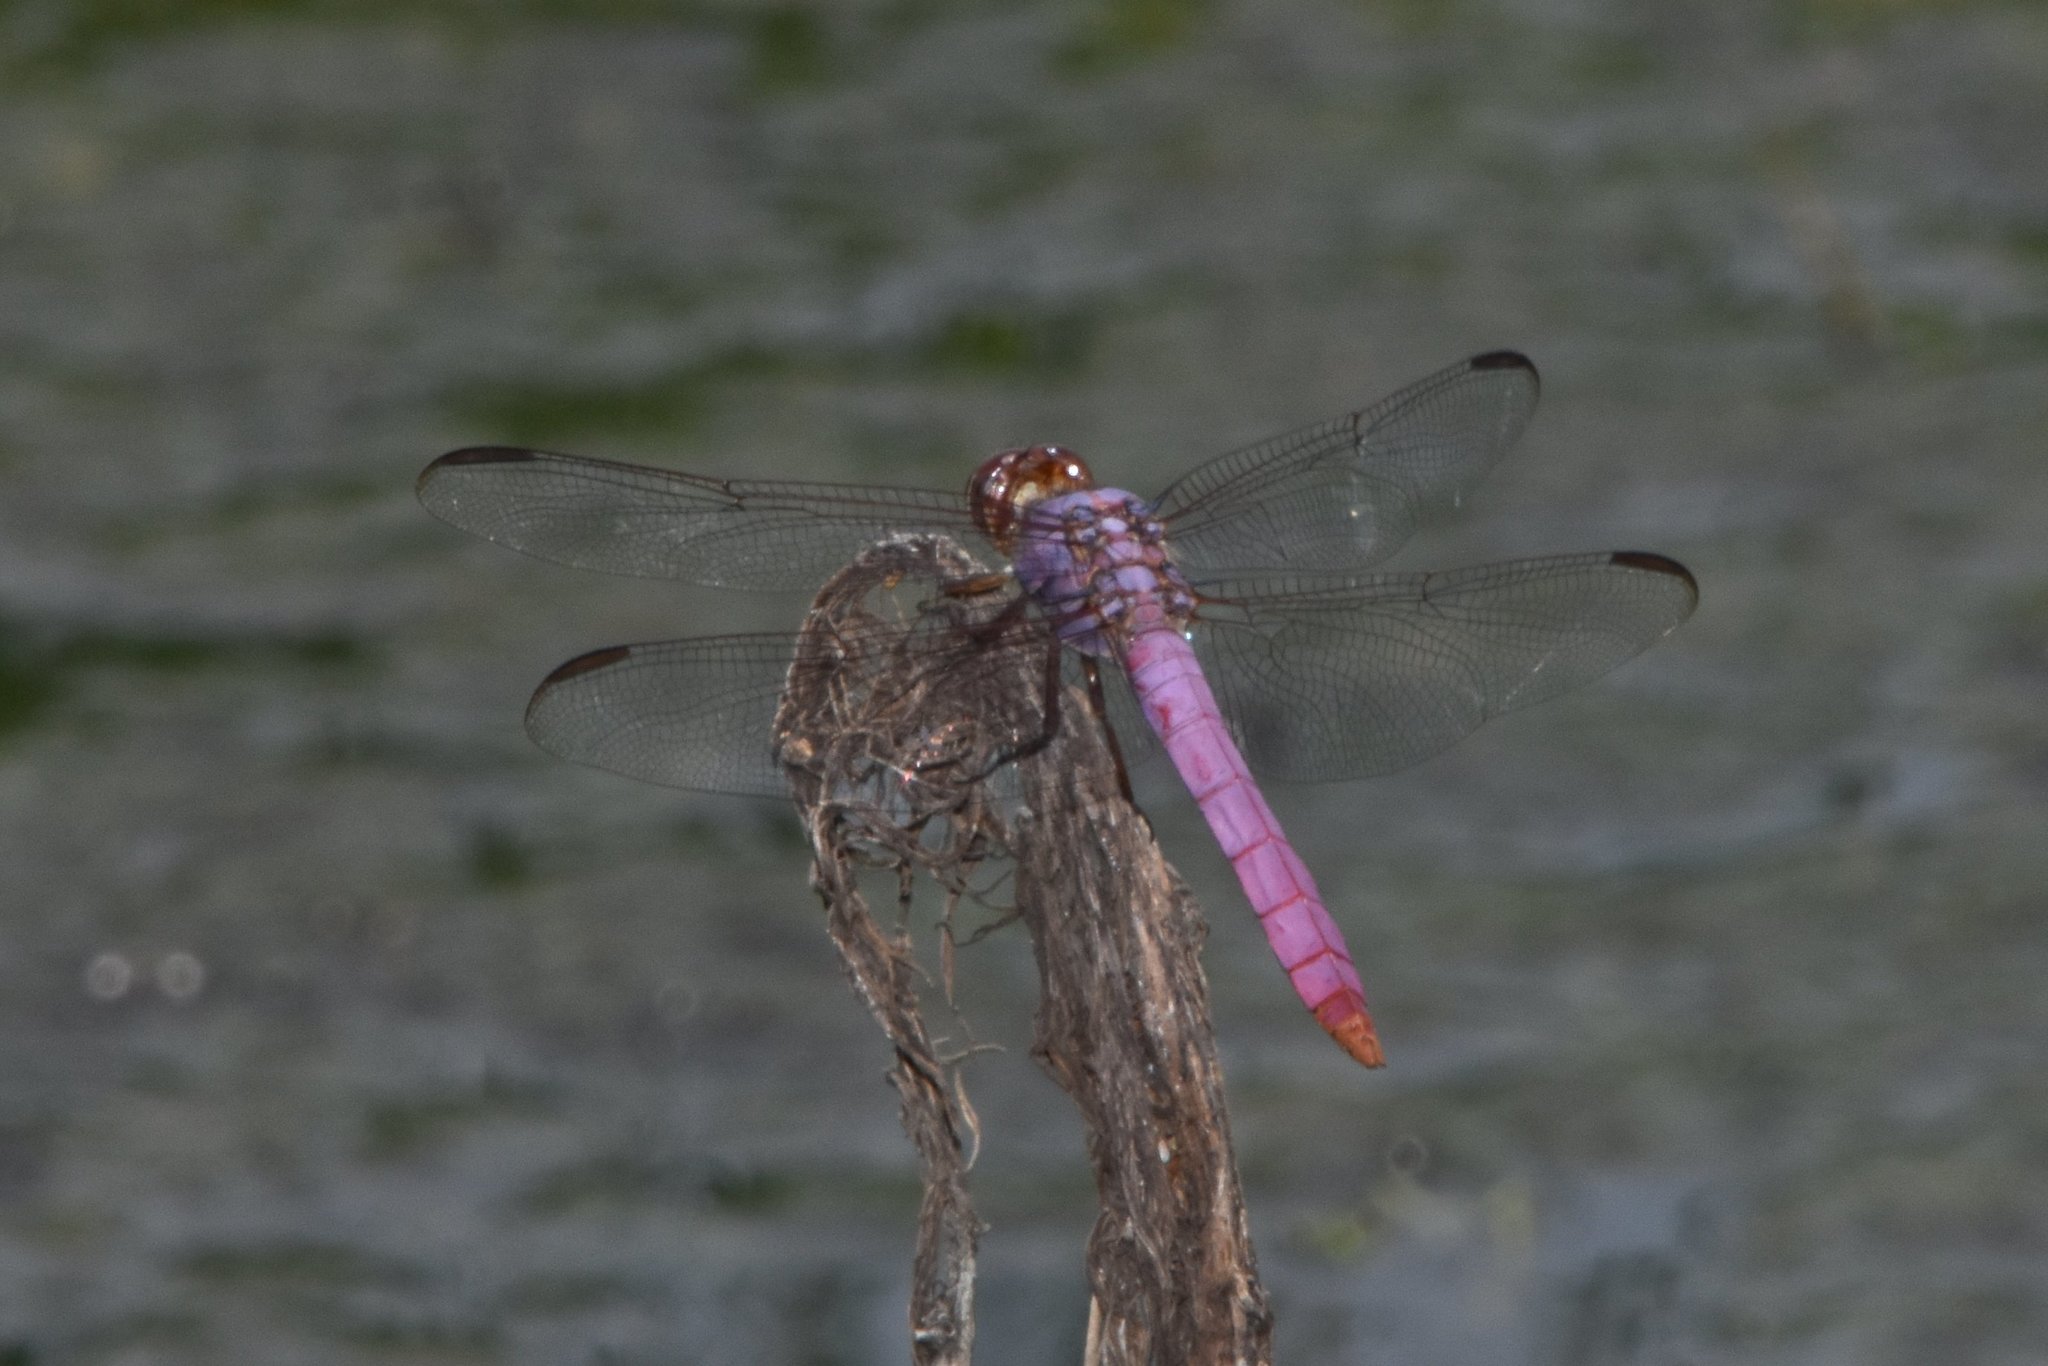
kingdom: Animalia
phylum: Arthropoda
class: Insecta
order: Odonata
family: Libellulidae
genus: Orthemis
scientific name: Orthemis ferruginea
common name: Roseate skimmer
